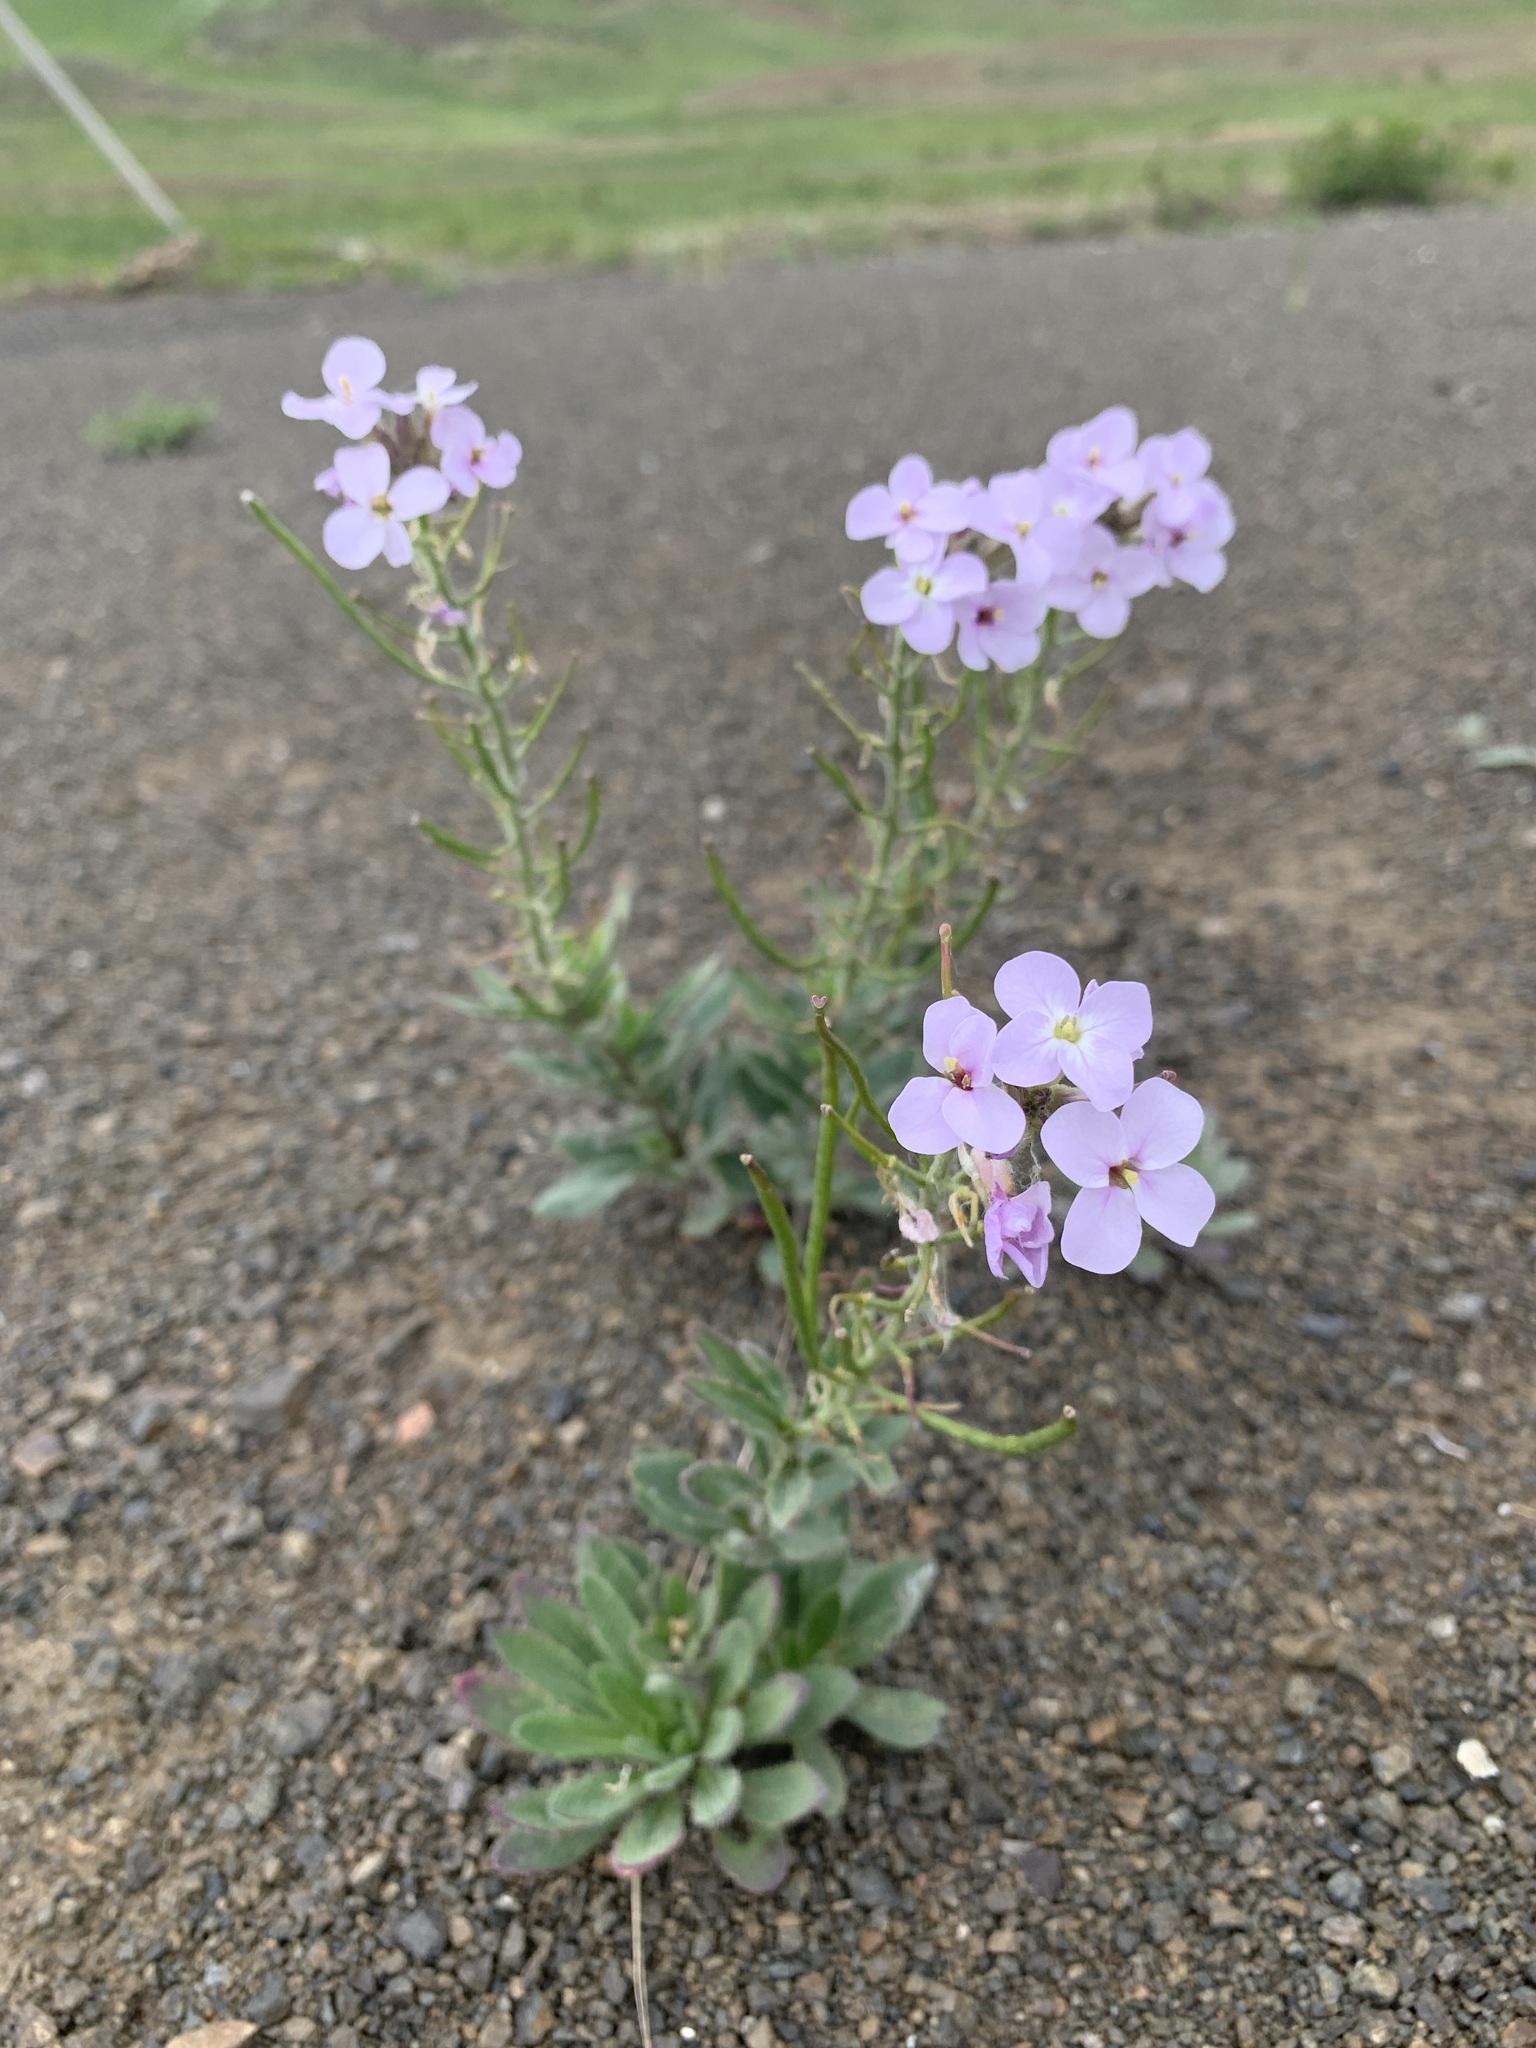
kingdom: Plantae
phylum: Tracheophyta
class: Magnoliopsida
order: Brassicales
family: Brassicaceae
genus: Clausia
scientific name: Clausia aprica
